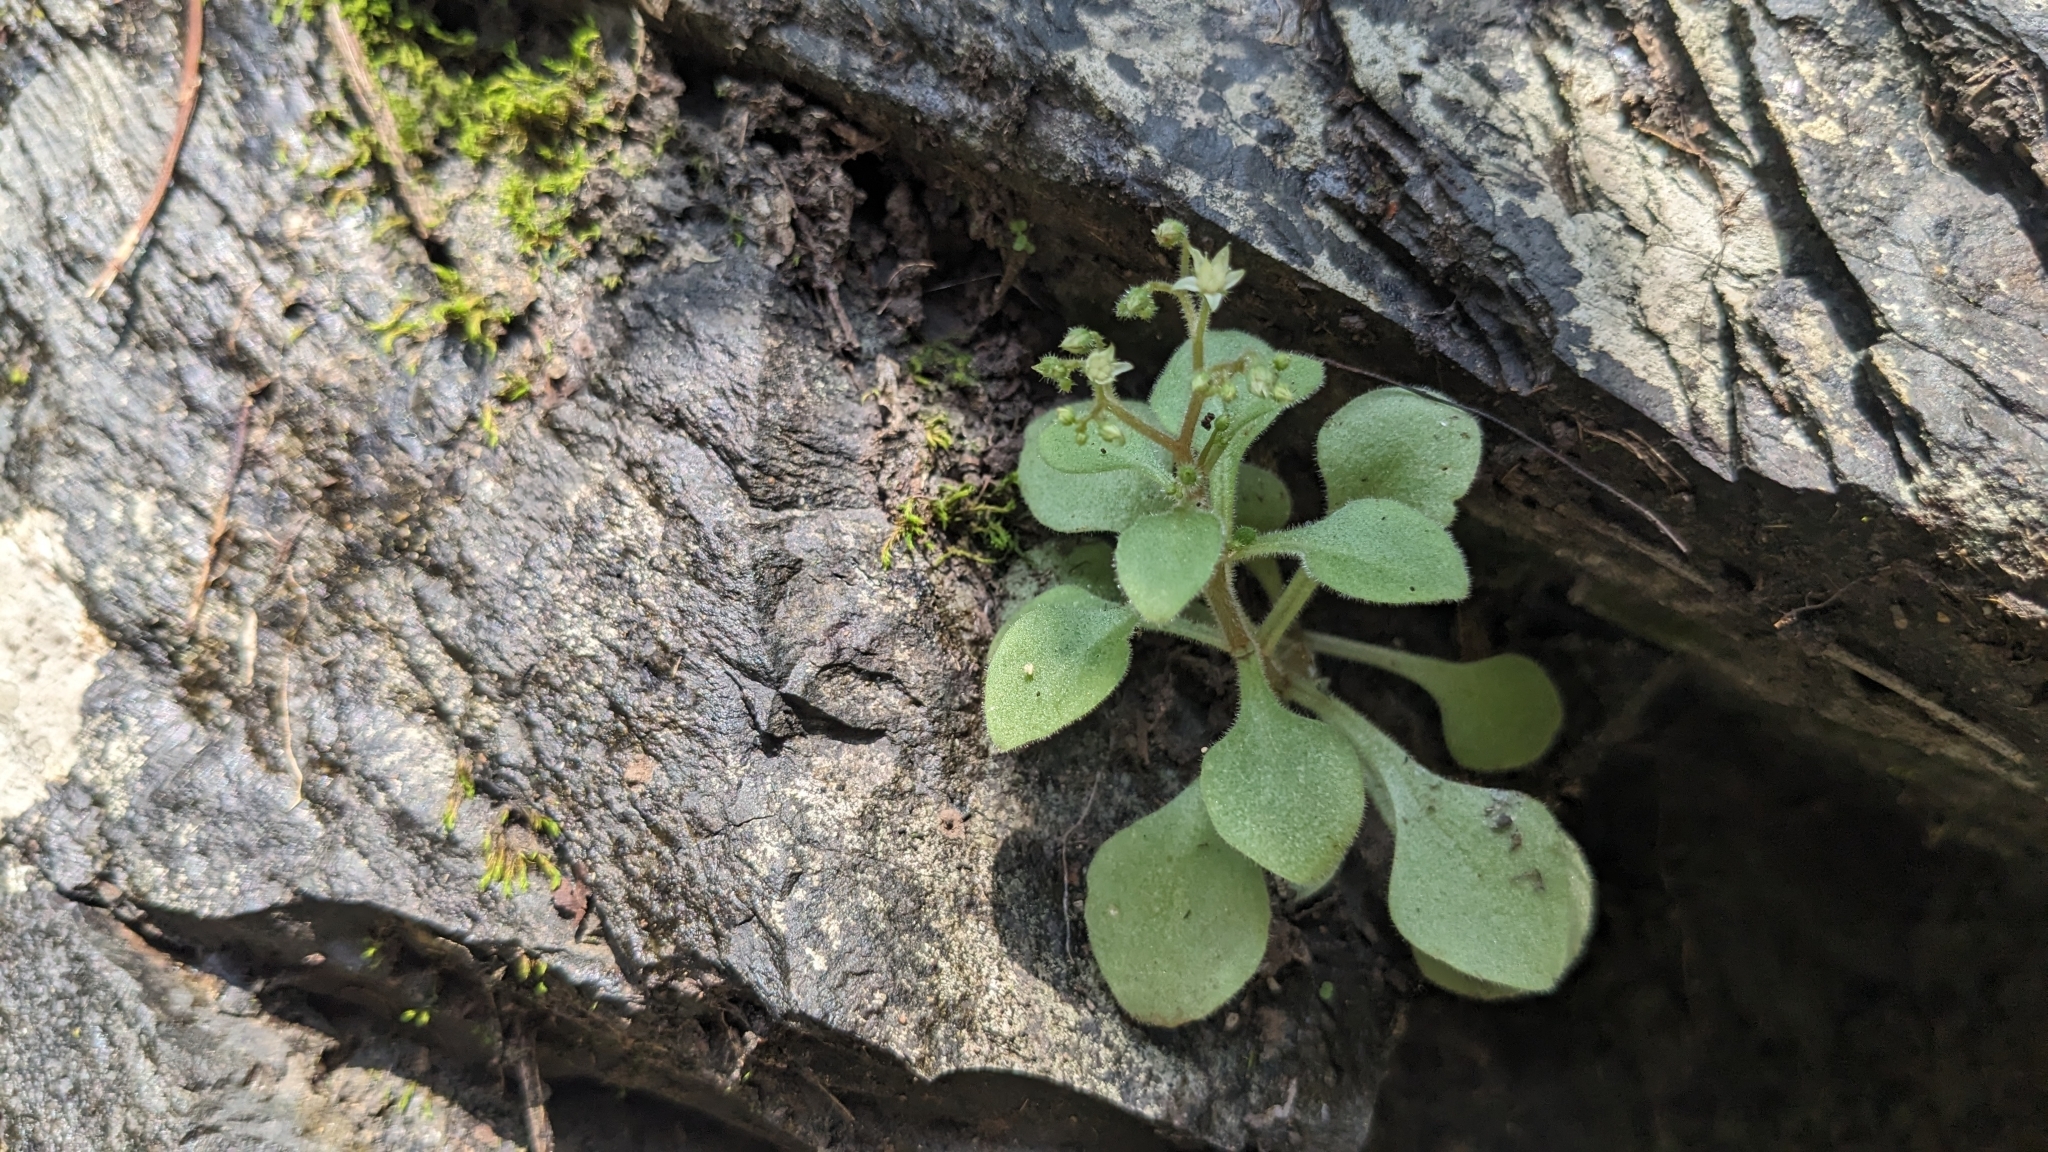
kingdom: Plantae
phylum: Tracheophyta
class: Magnoliopsida
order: Saxifragales
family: Crassulaceae
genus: Sedum
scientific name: Sedum drymarioides
